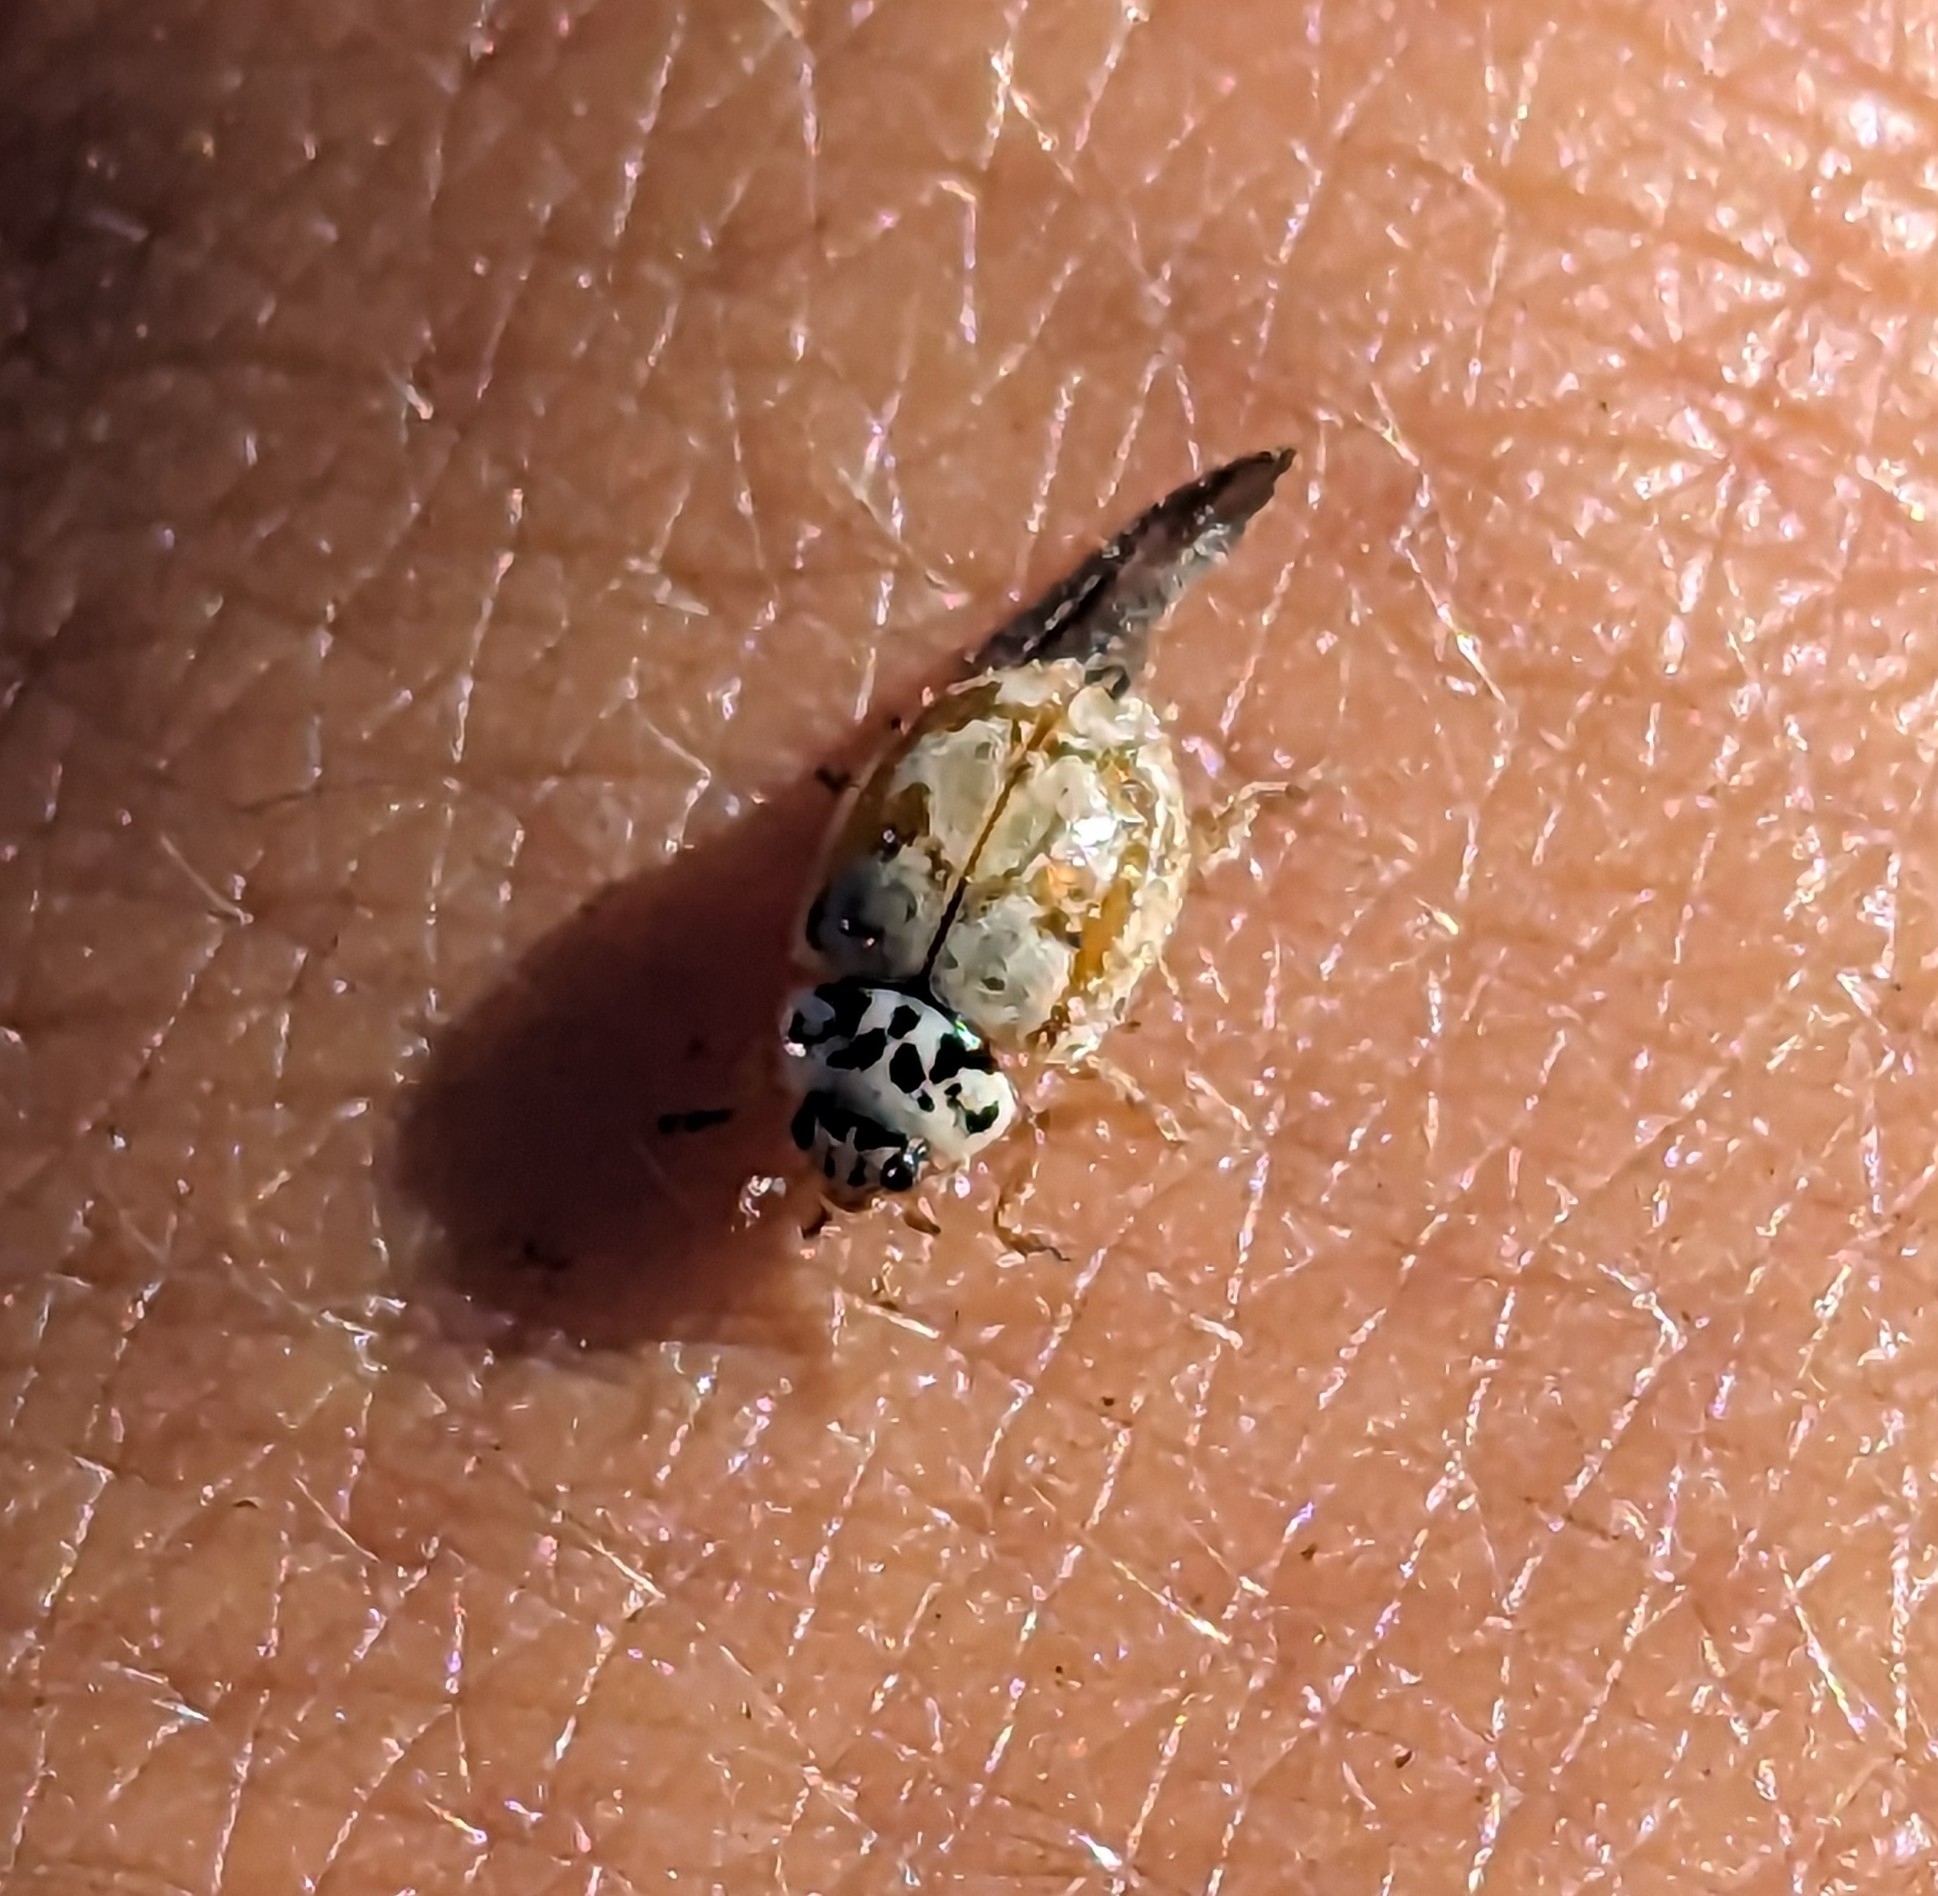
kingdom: Animalia
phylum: Arthropoda
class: Insecta
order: Coleoptera
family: Coccinellidae
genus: Mulsantina
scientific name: Mulsantina picta
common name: Painted ladybird
